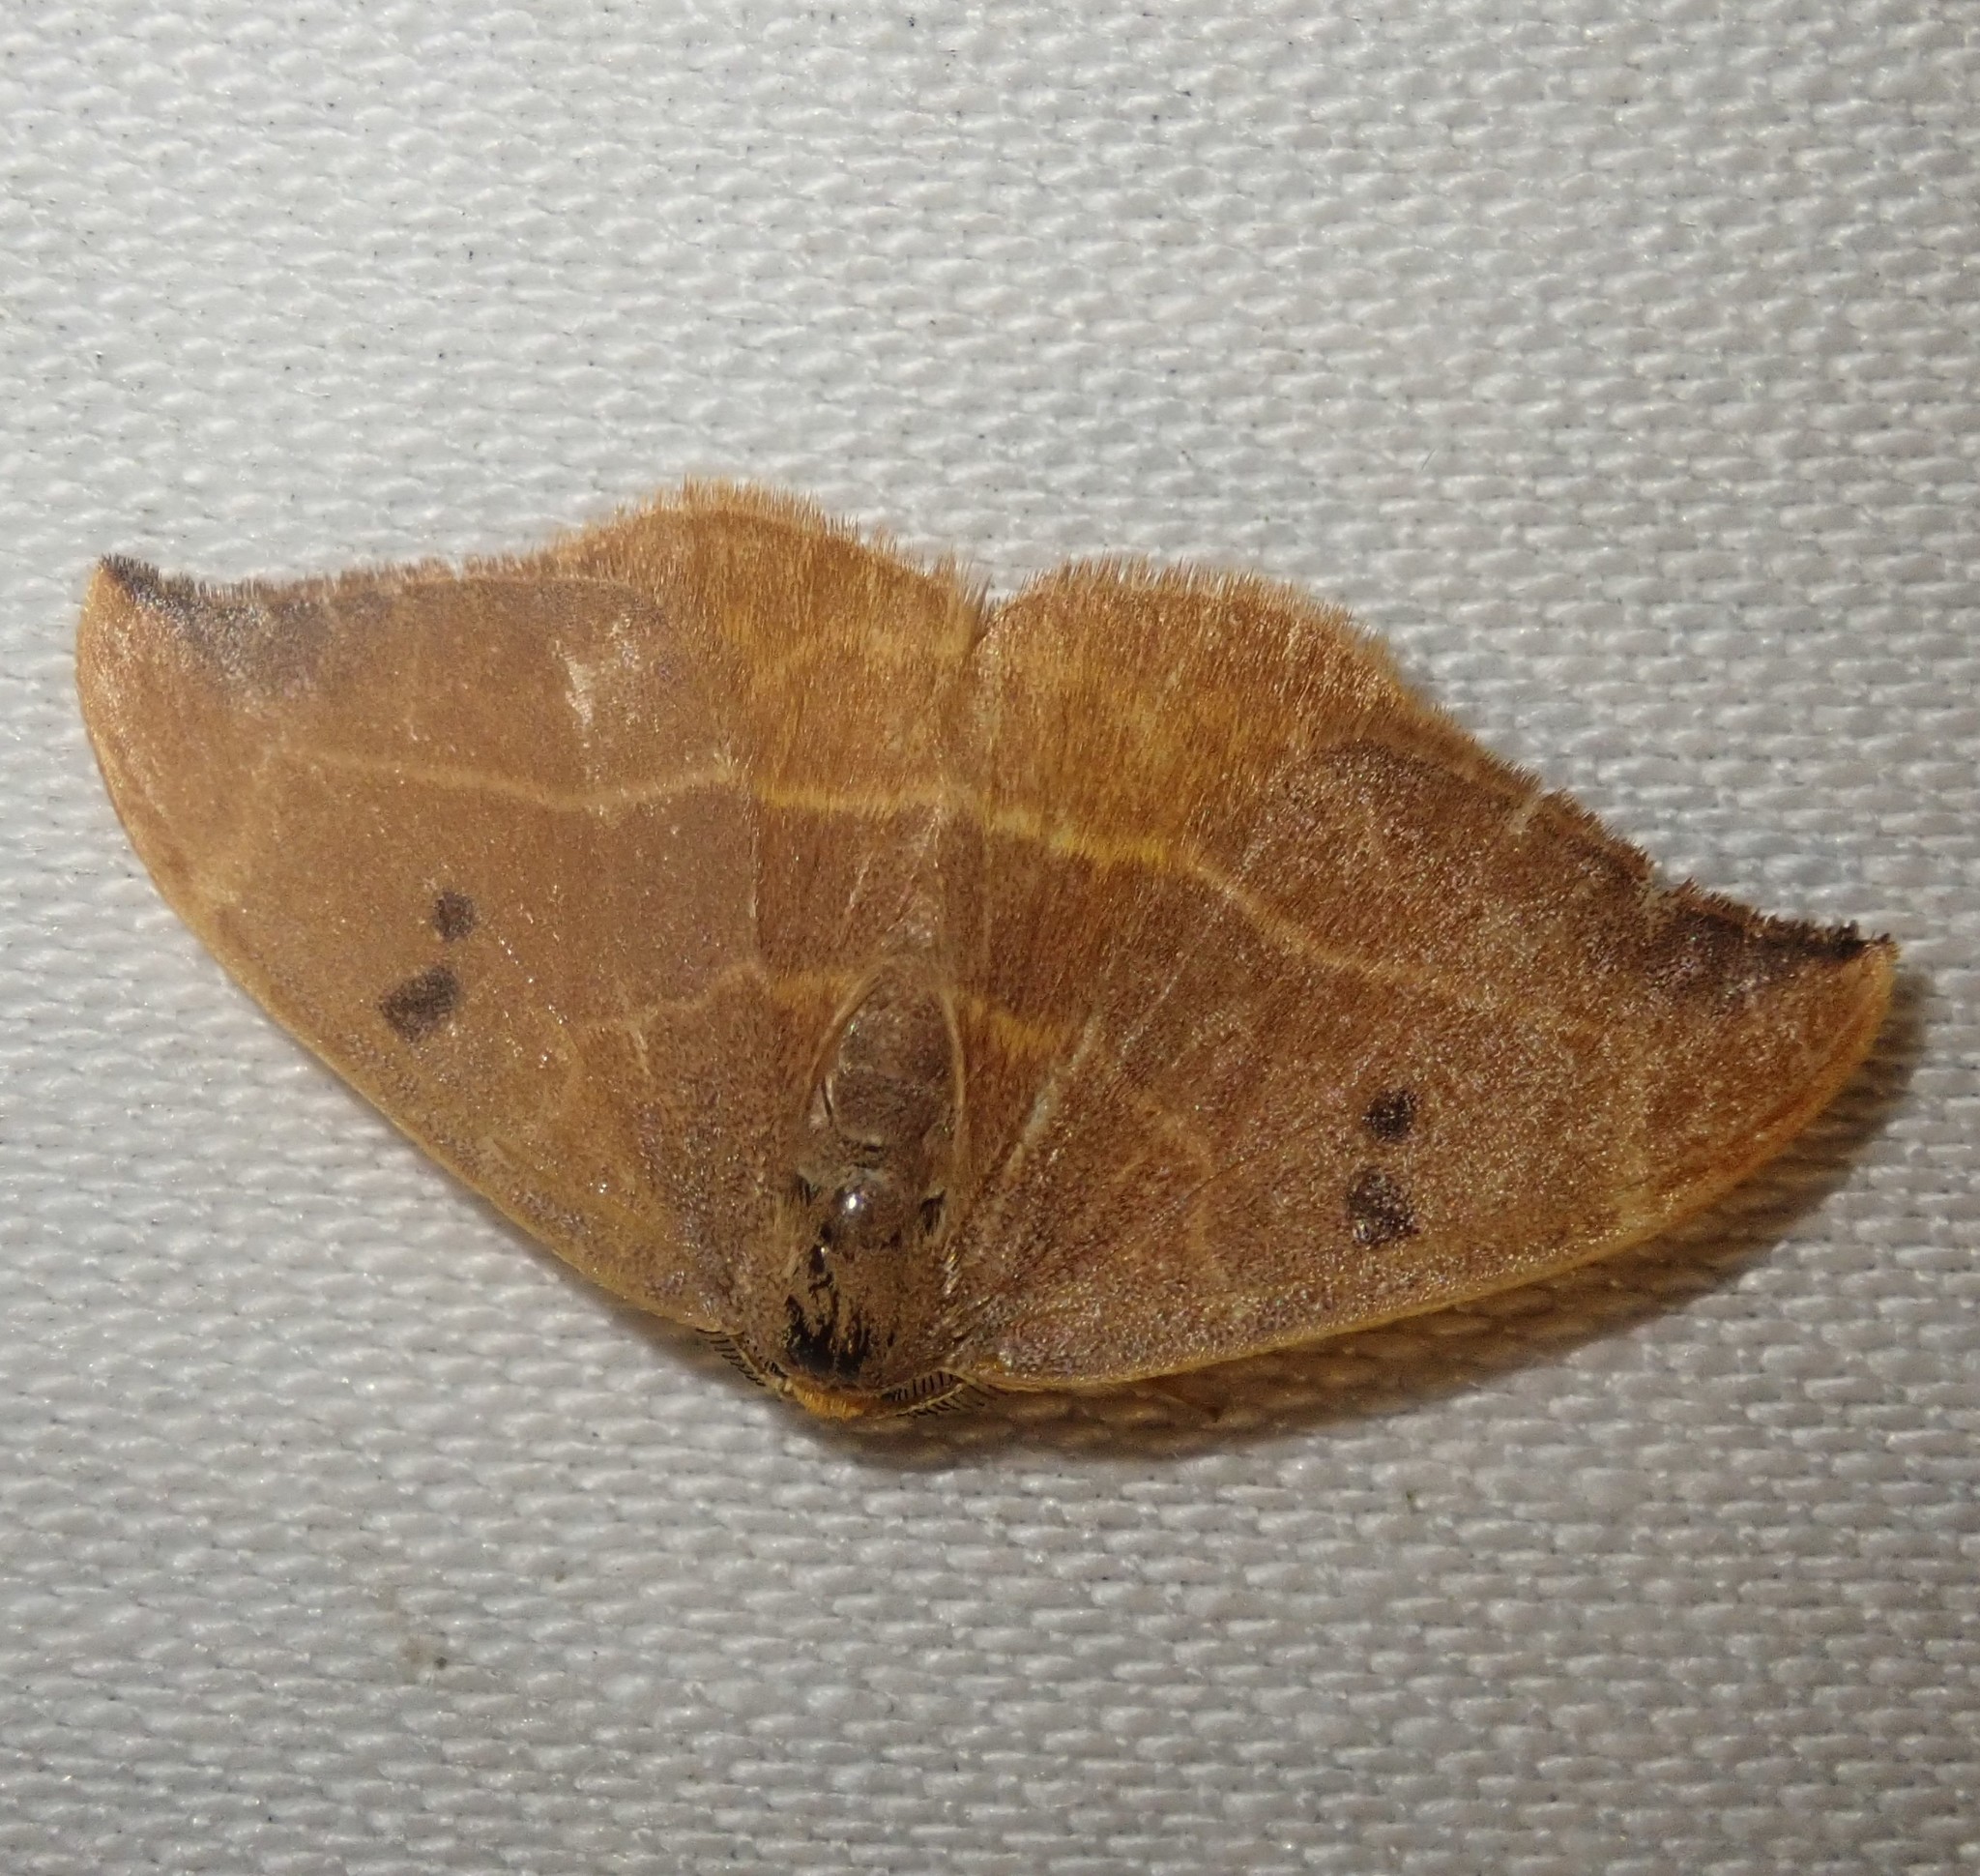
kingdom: Animalia
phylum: Arthropoda
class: Insecta
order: Lepidoptera
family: Drepanidae
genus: Watsonalla
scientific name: Watsonalla binaria
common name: Oak hook-tip
